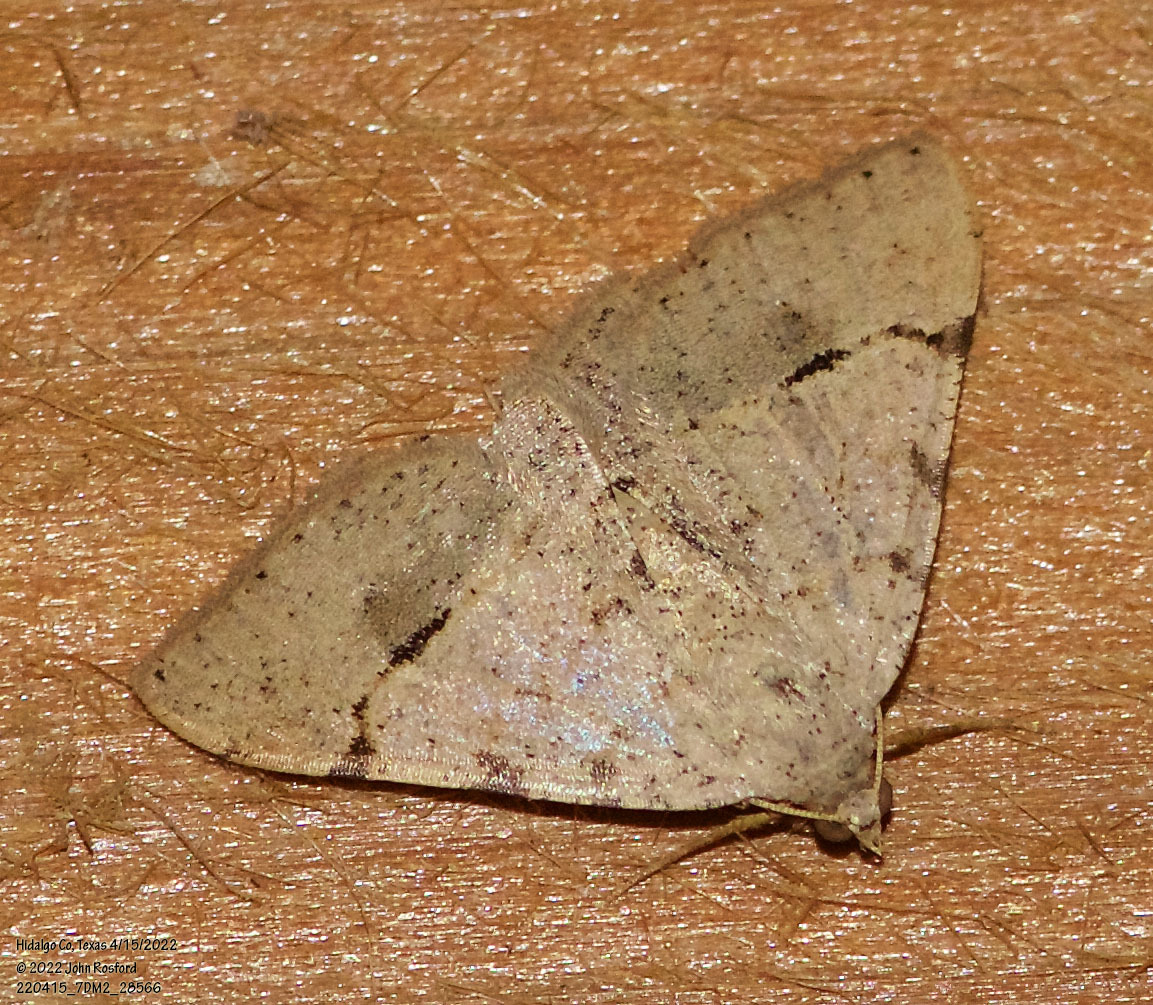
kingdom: Animalia
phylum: Arthropoda
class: Insecta
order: Lepidoptera
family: Geometridae
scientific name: Geometridae
